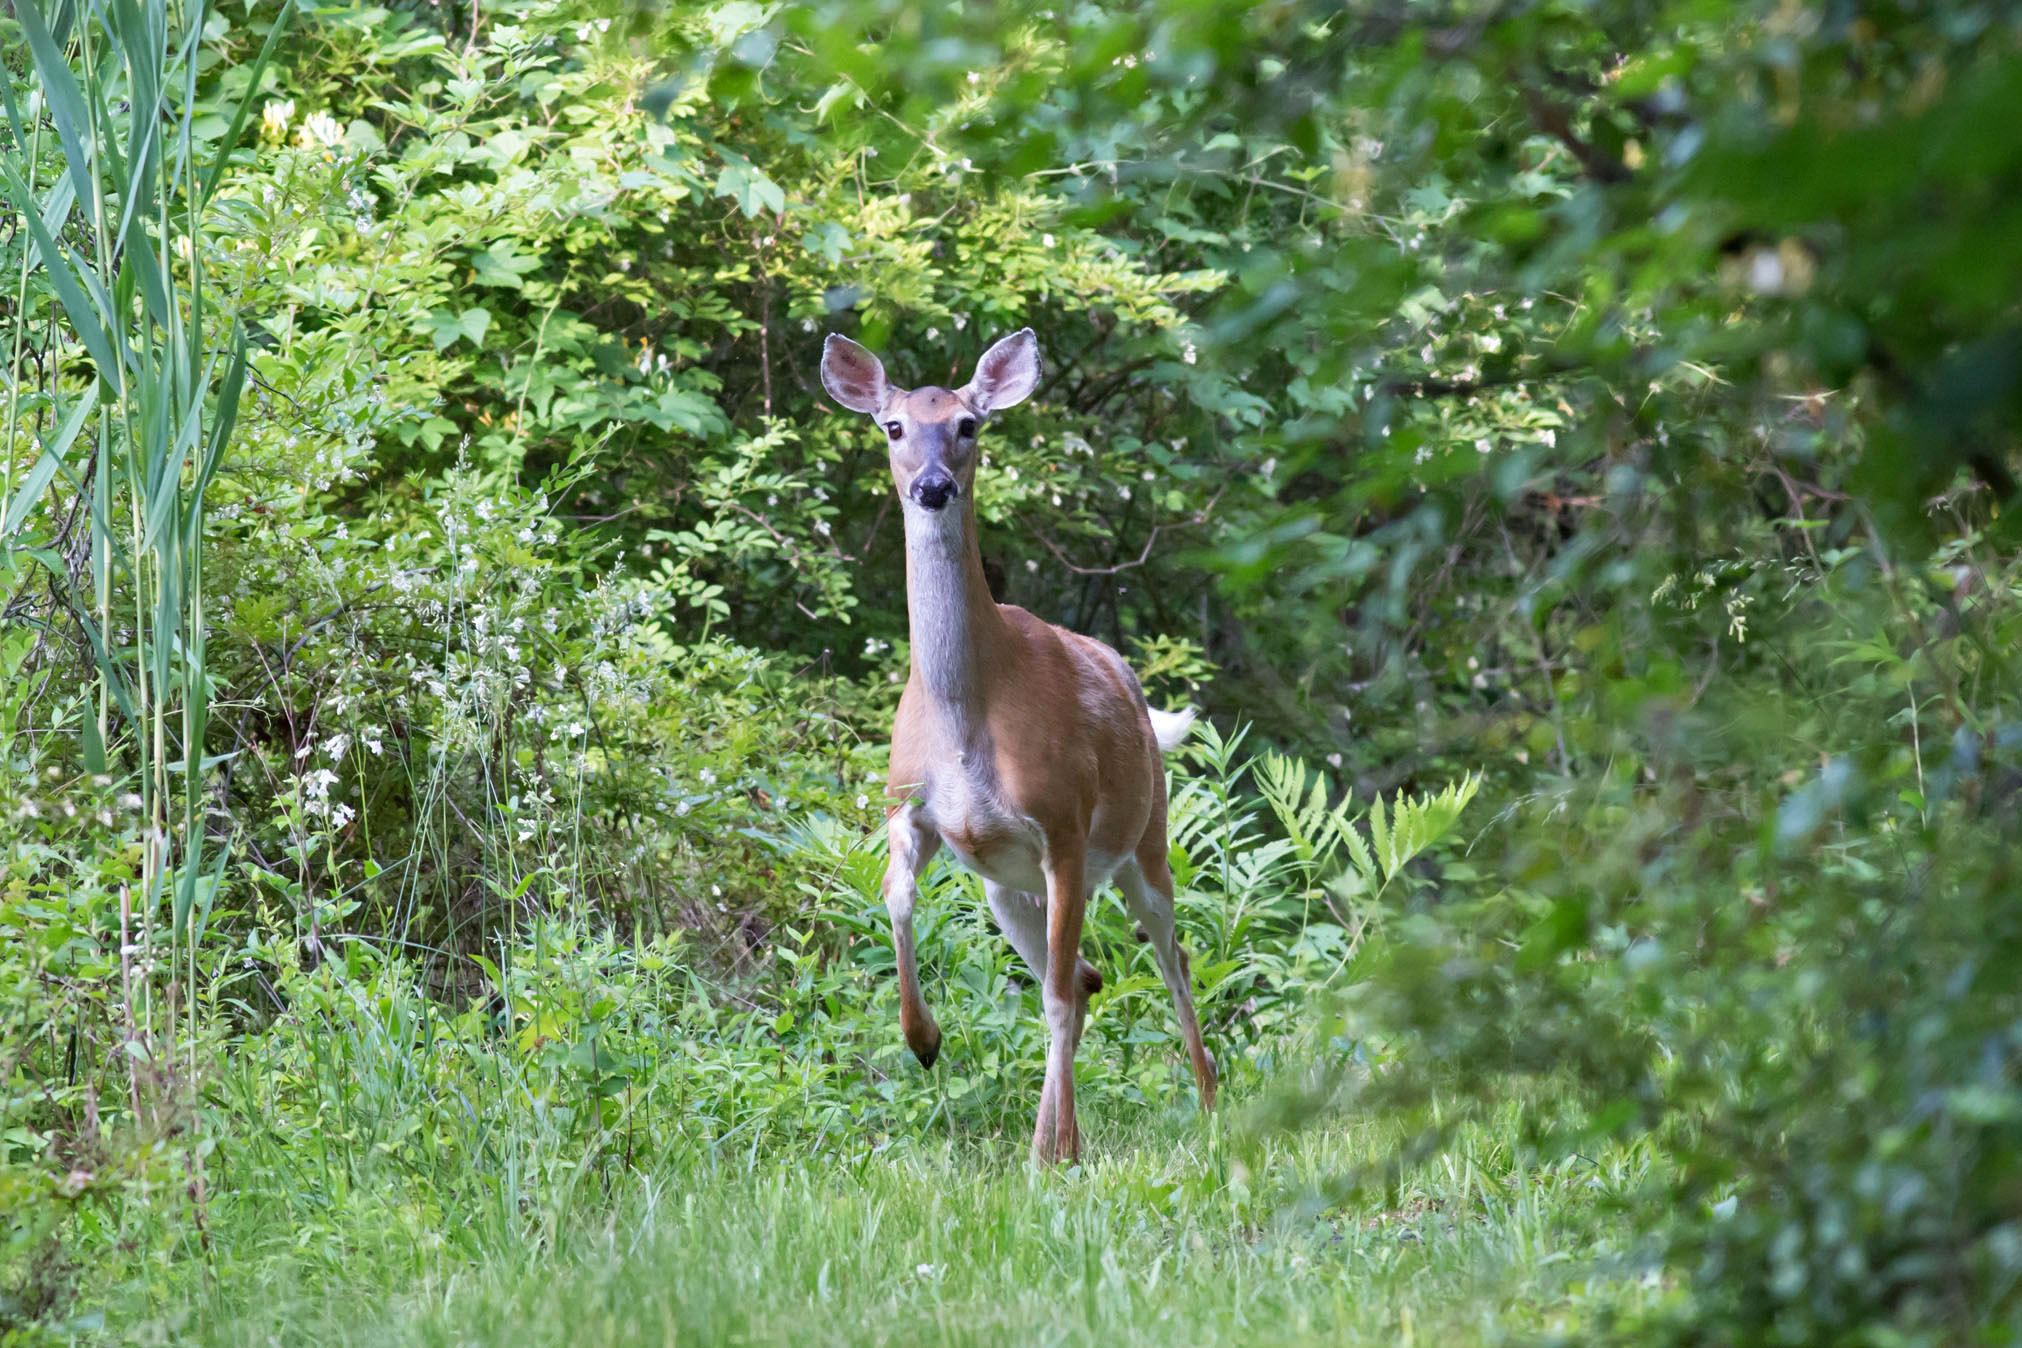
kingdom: Animalia
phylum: Chordata
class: Mammalia
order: Artiodactyla
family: Cervidae
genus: Odocoileus
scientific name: Odocoileus virginianus
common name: White-tailed deer
